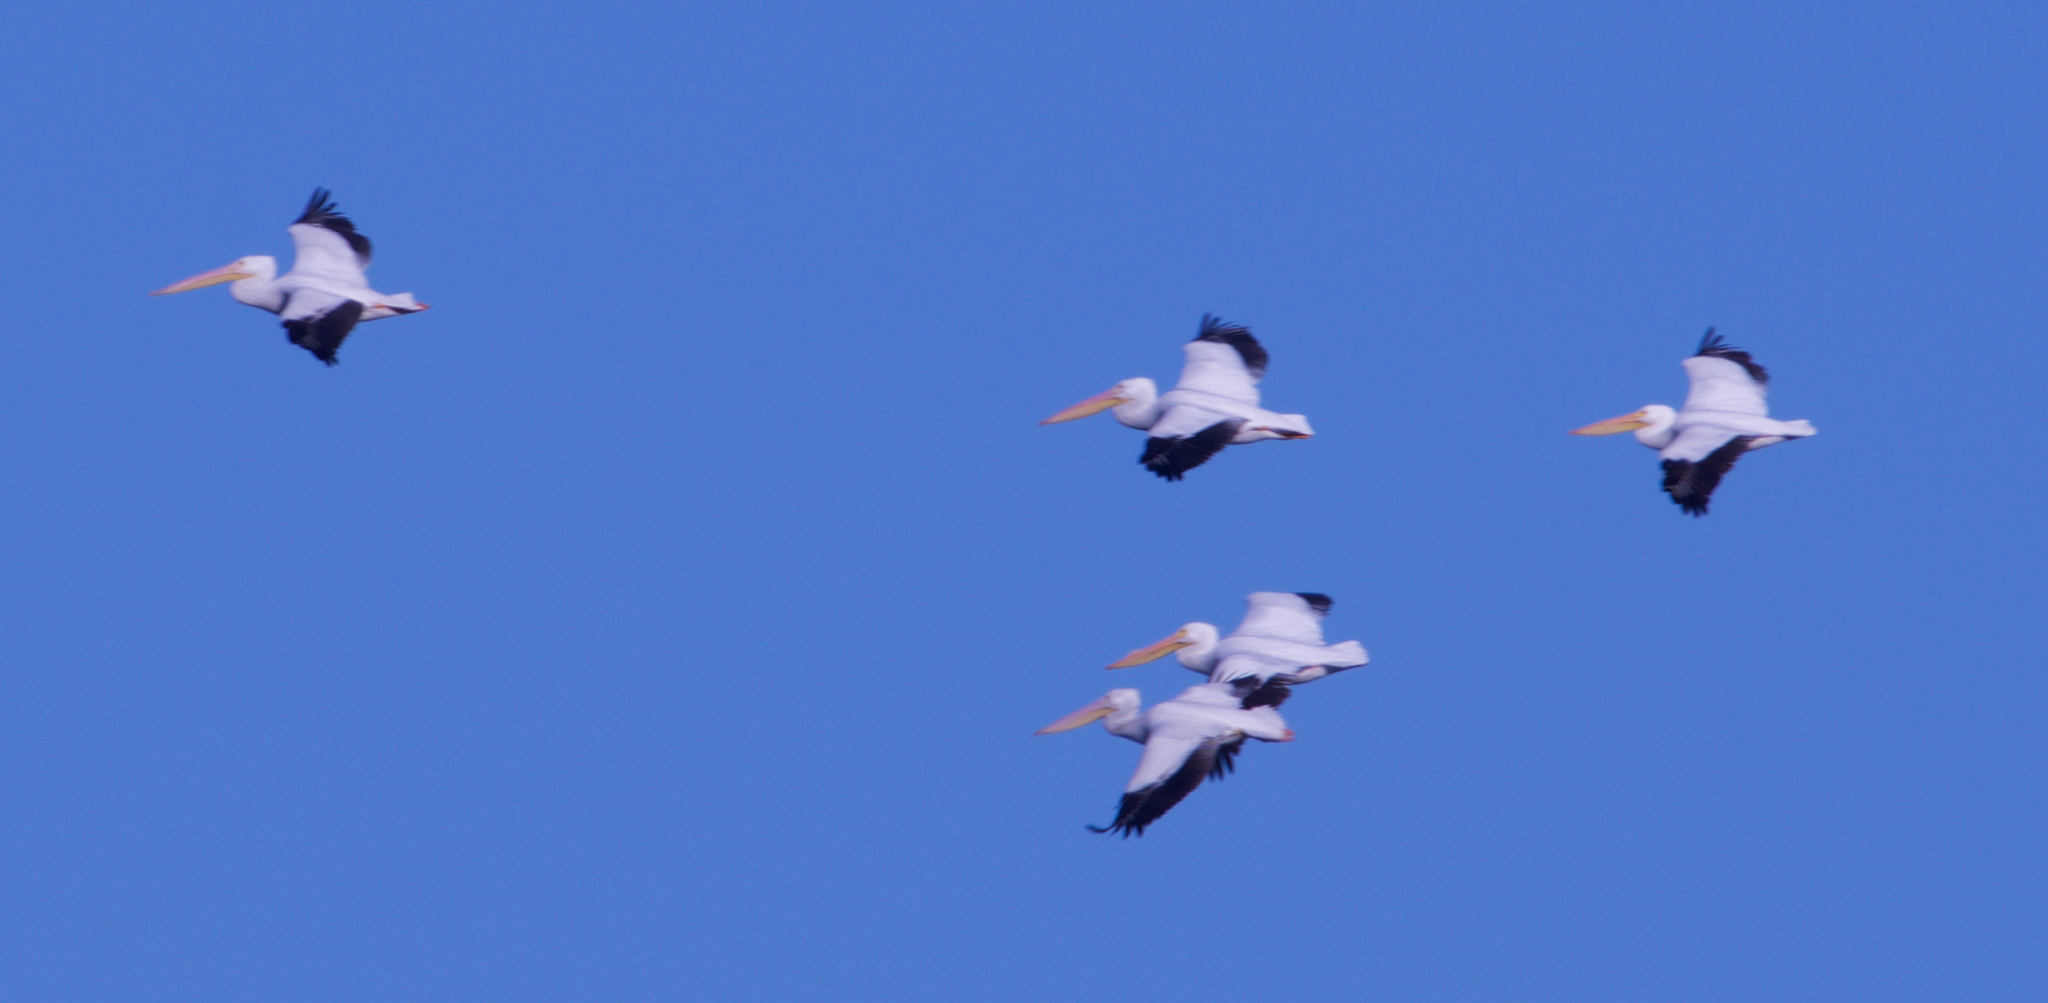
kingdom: Animalia
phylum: Chordata
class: Aves
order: Pelecaniformes
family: Pelecanidae
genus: Pelecanus
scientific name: Pelecanus erythrorhynchos
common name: American white pelican
